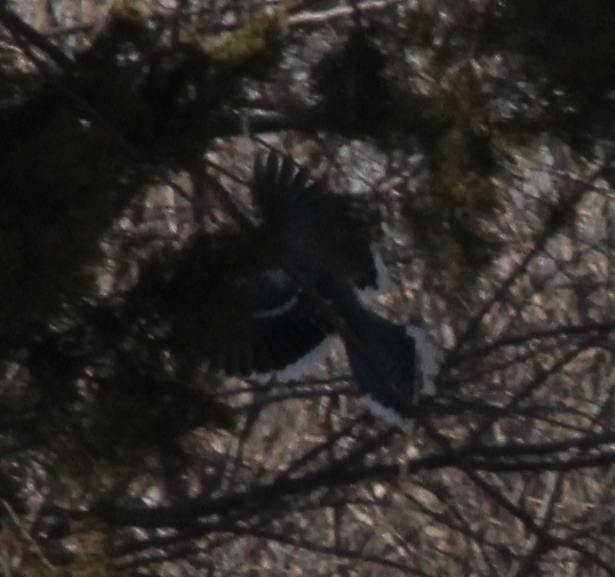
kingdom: Animalia
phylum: Chordata
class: Aves
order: Passeriformes
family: Corvidae
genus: Cyanocitta
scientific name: Cyanocitta cristata
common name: Blue jay
